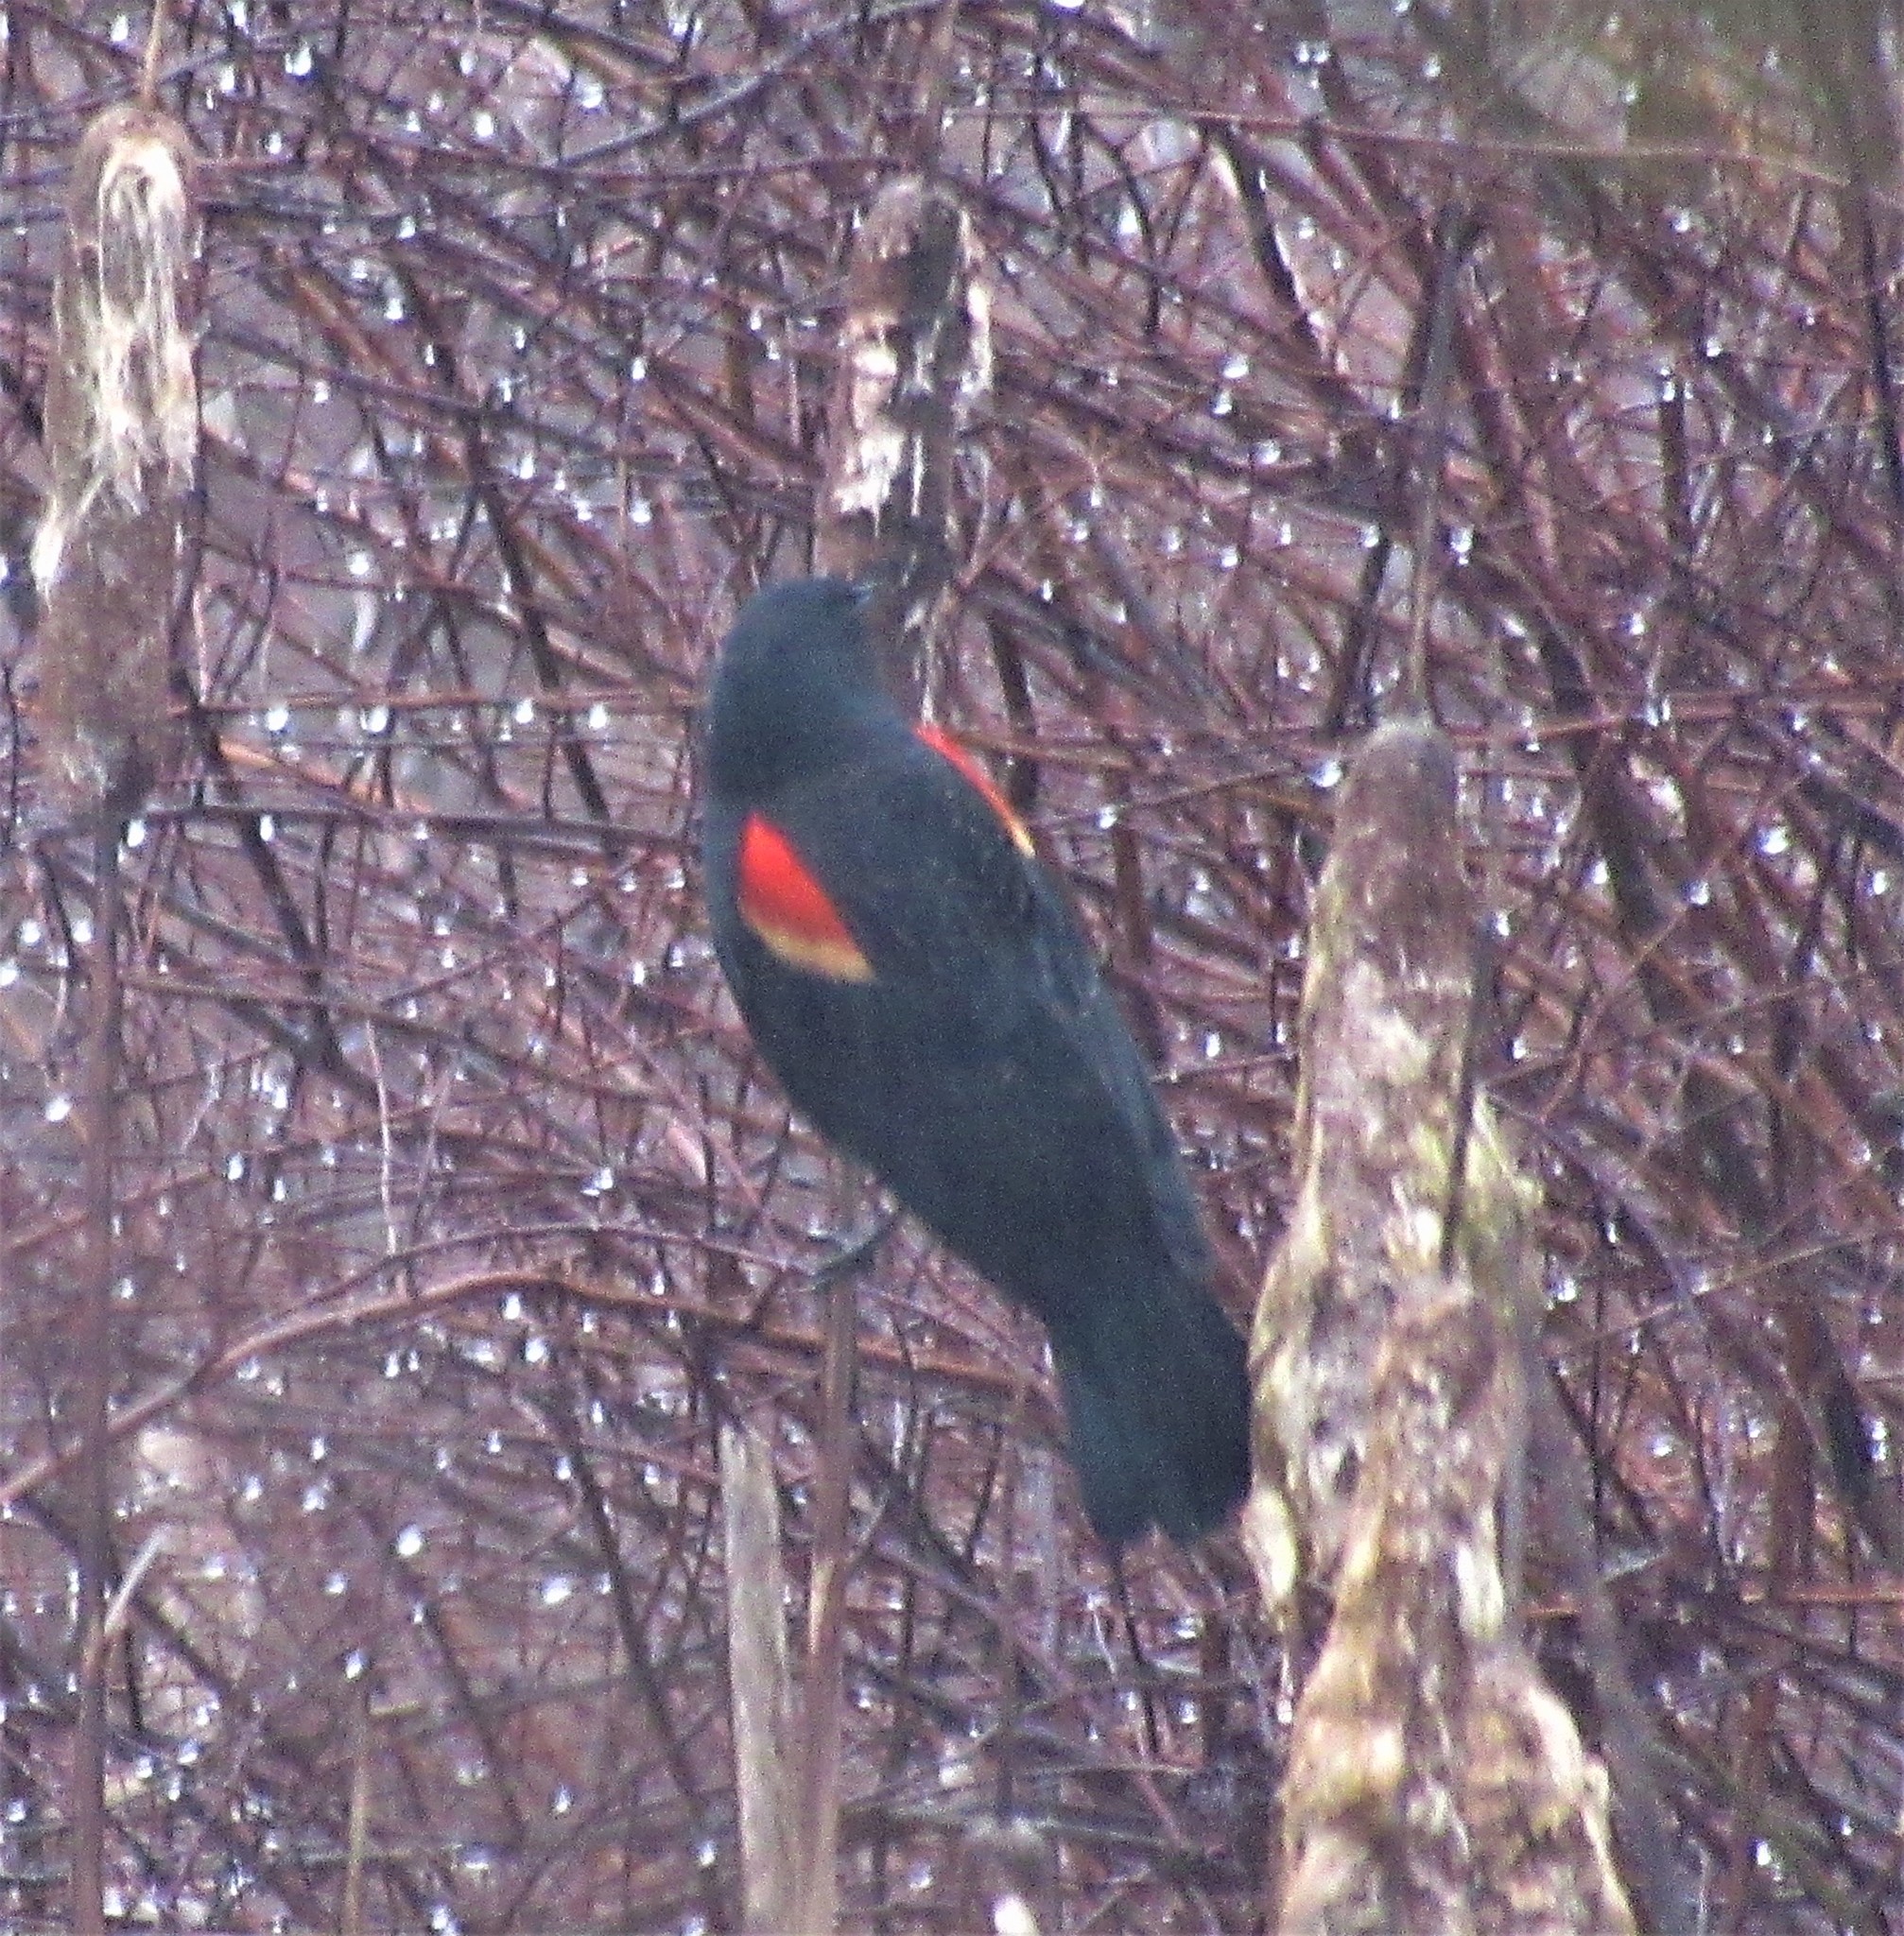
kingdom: Animalia
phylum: Chordata
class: Aves
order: Passeriformes
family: Icteridae
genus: Agelaius
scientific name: Agelaius phoeniceus
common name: Red-winged blackbird
